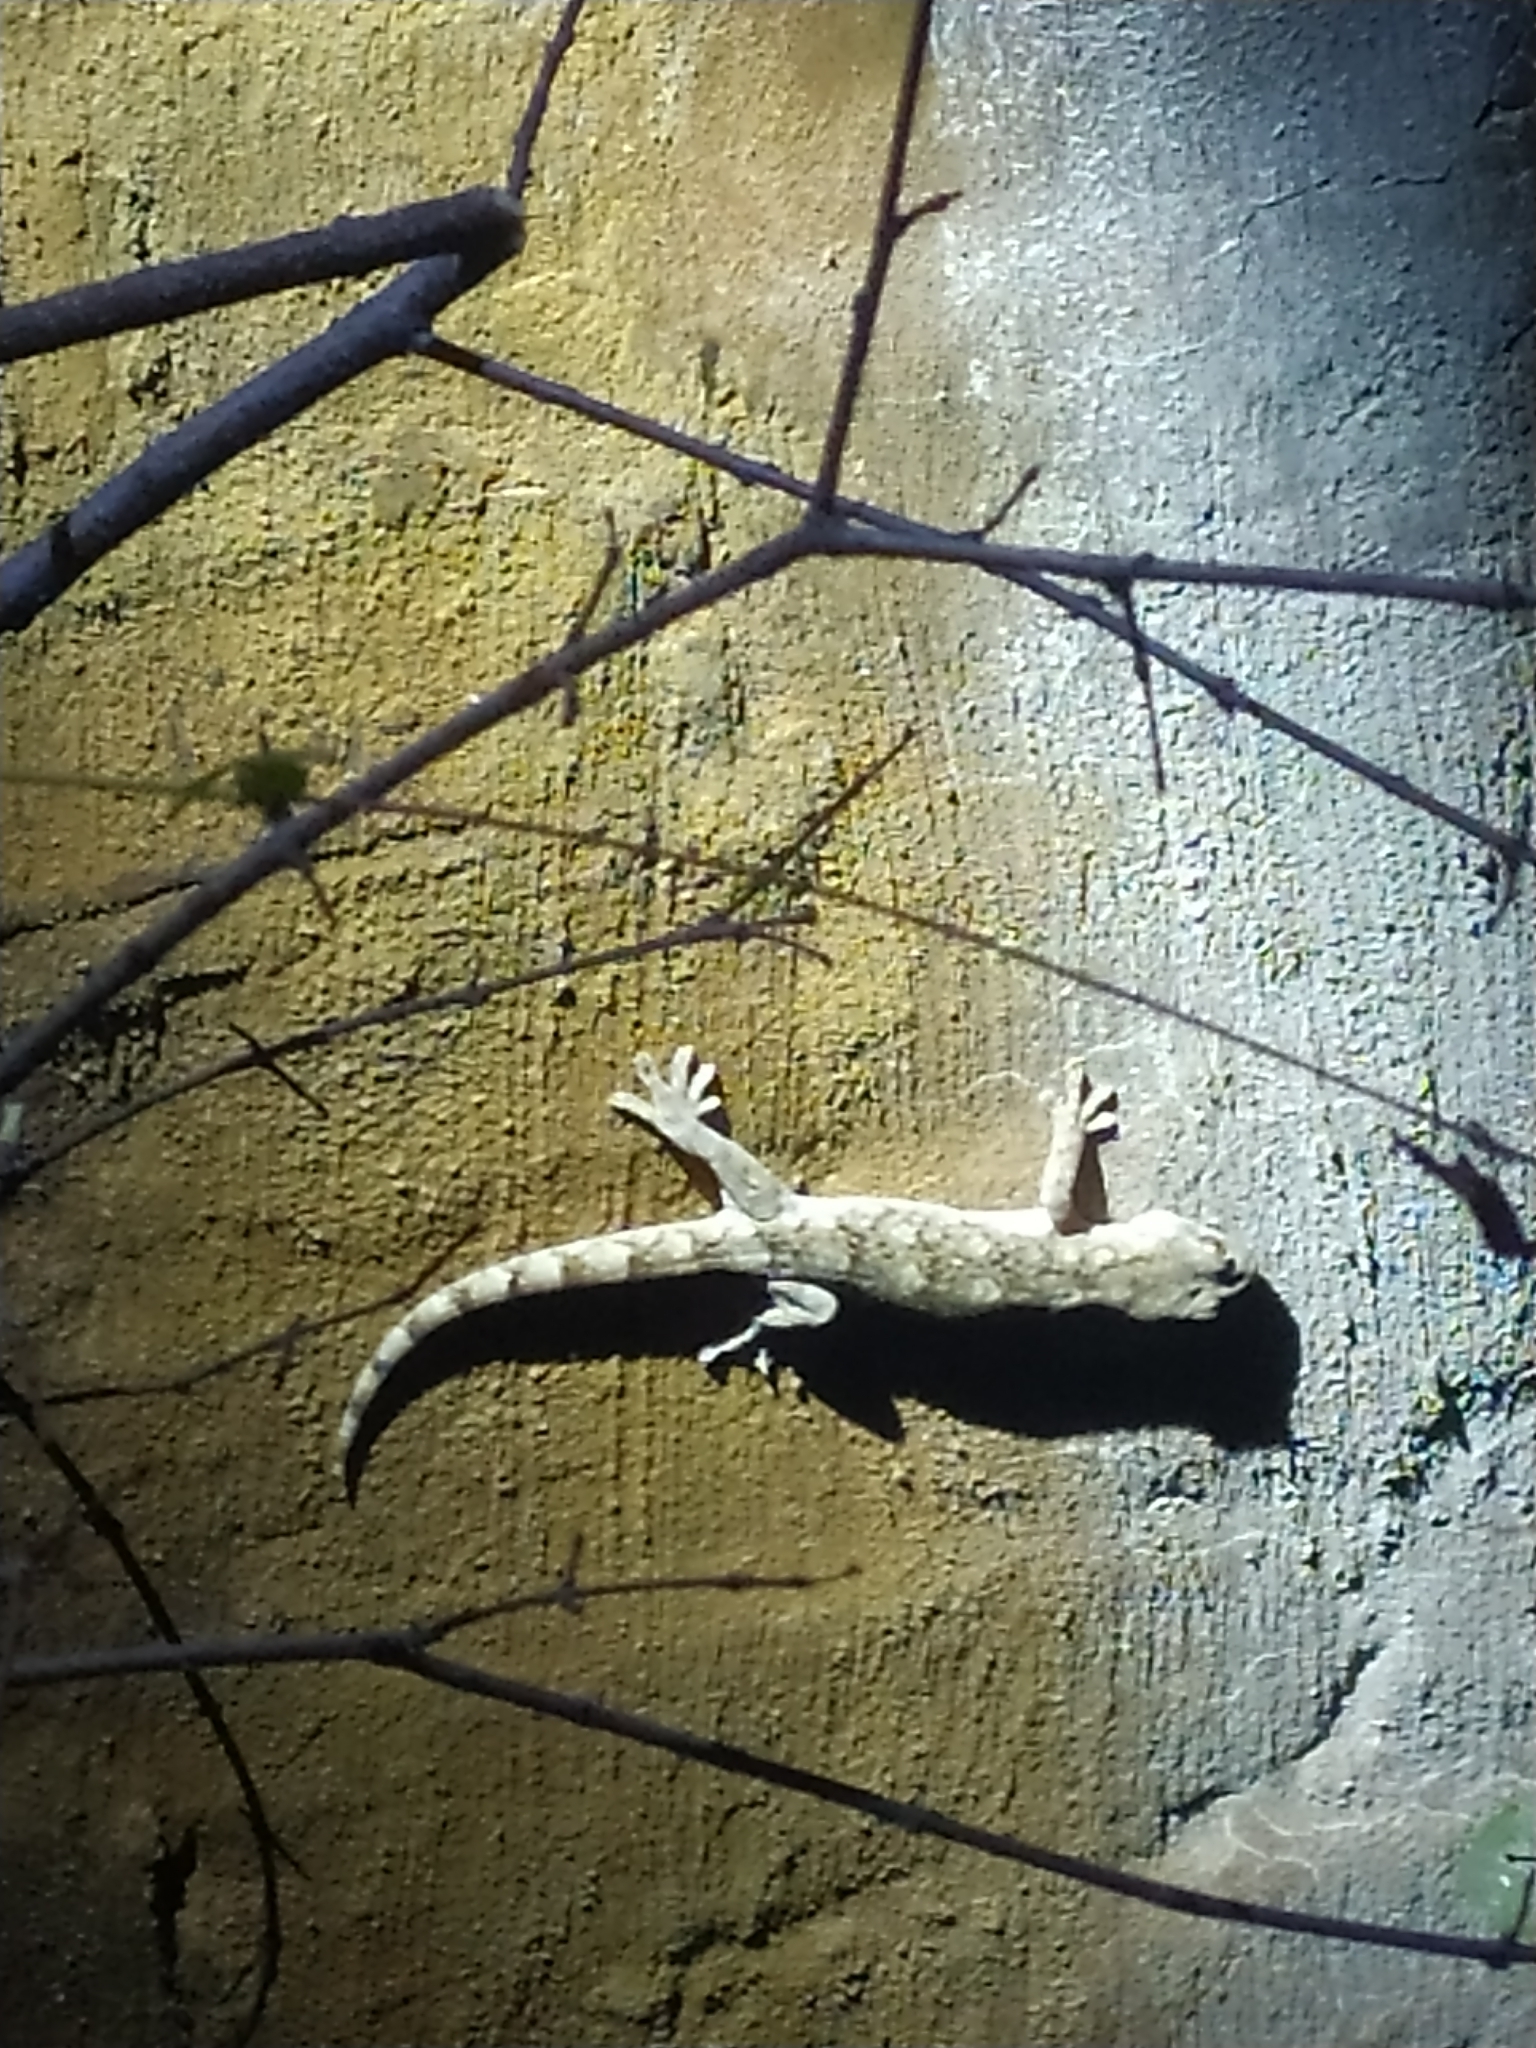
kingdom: Animalia
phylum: Chordata
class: Squamata
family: Gekkonidae
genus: Homopholis
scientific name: Homopholis walbergii
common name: Wahlberg’s velvet gecko
